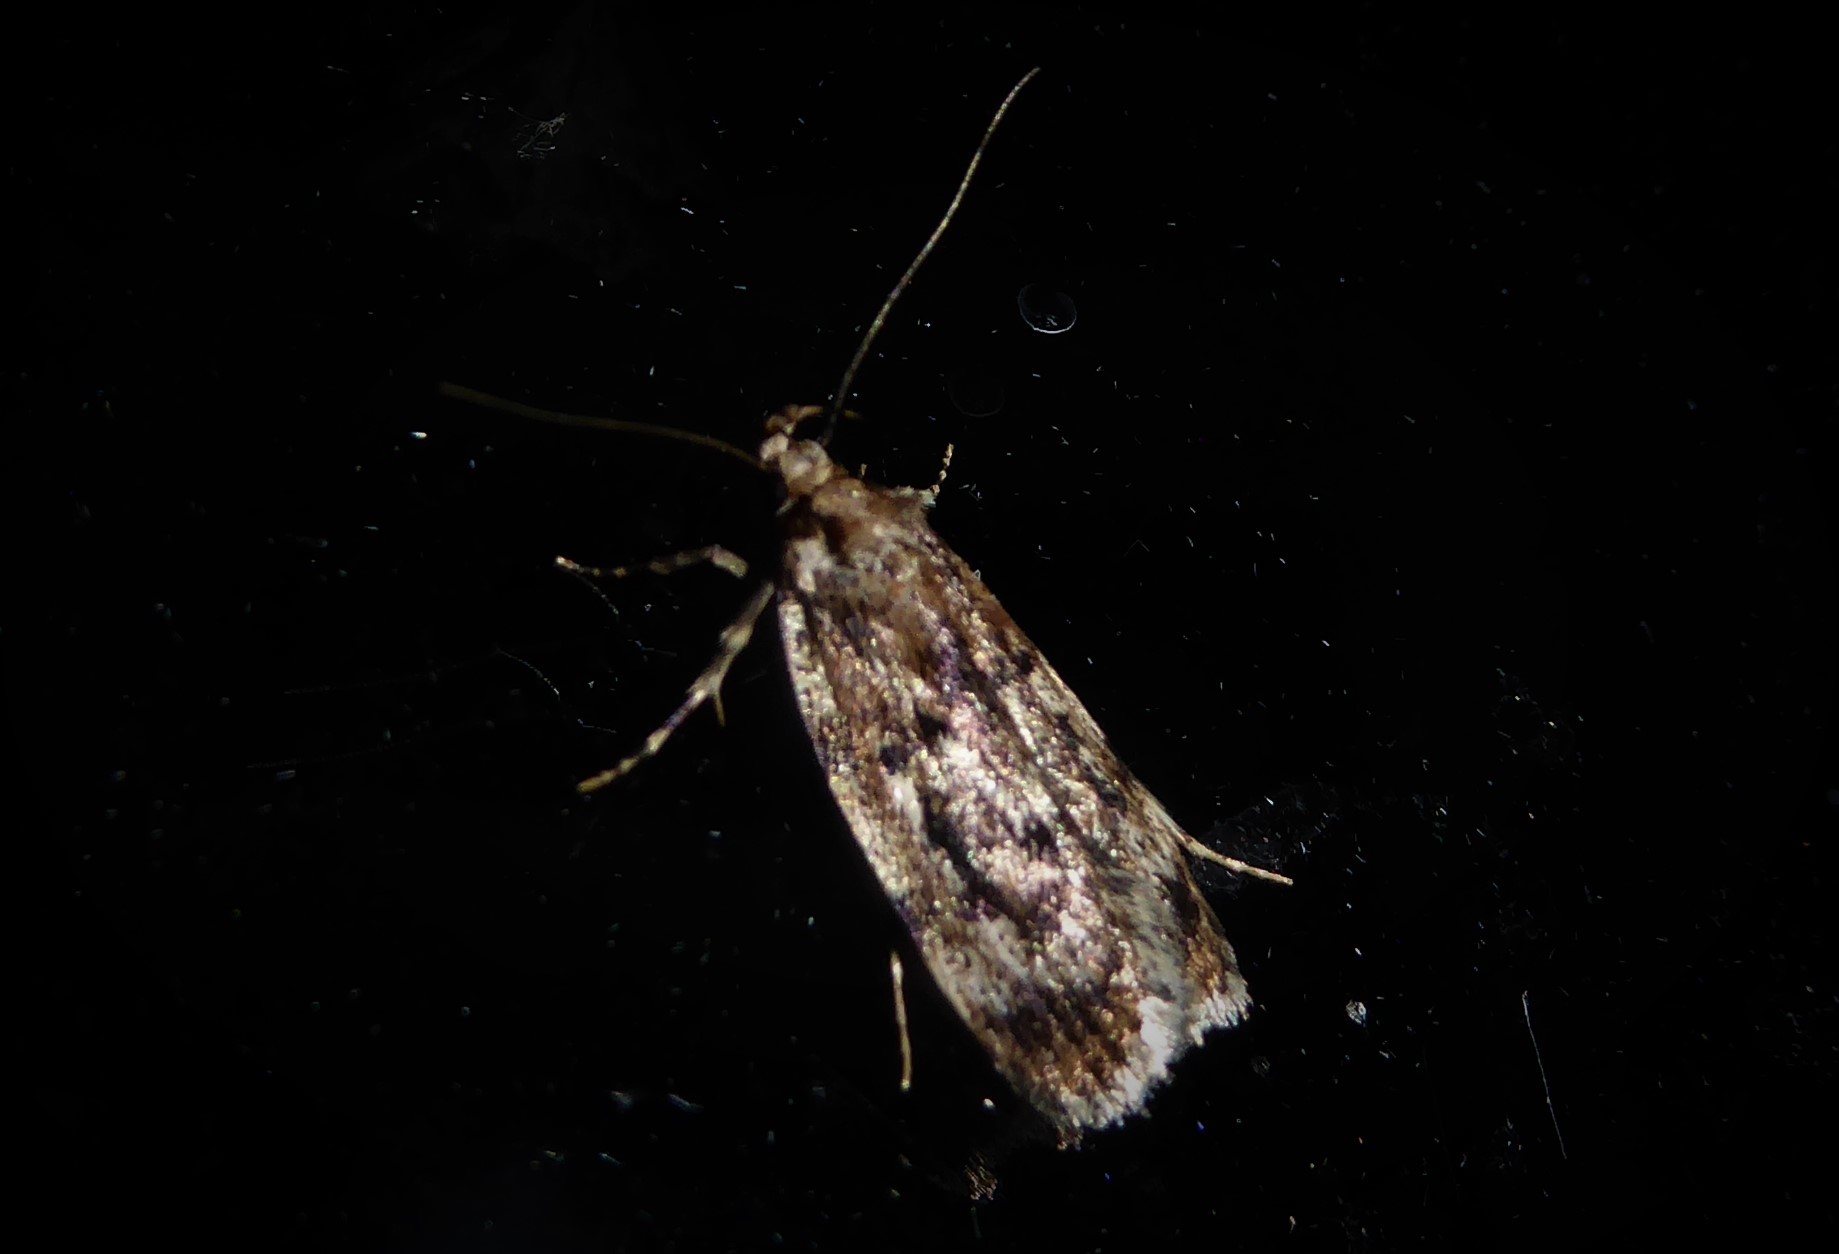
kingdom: Animalia
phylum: Arthropoda
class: Insecta
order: Lepidoptera
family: Oecophoridae
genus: Barea
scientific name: Barea exarcha
